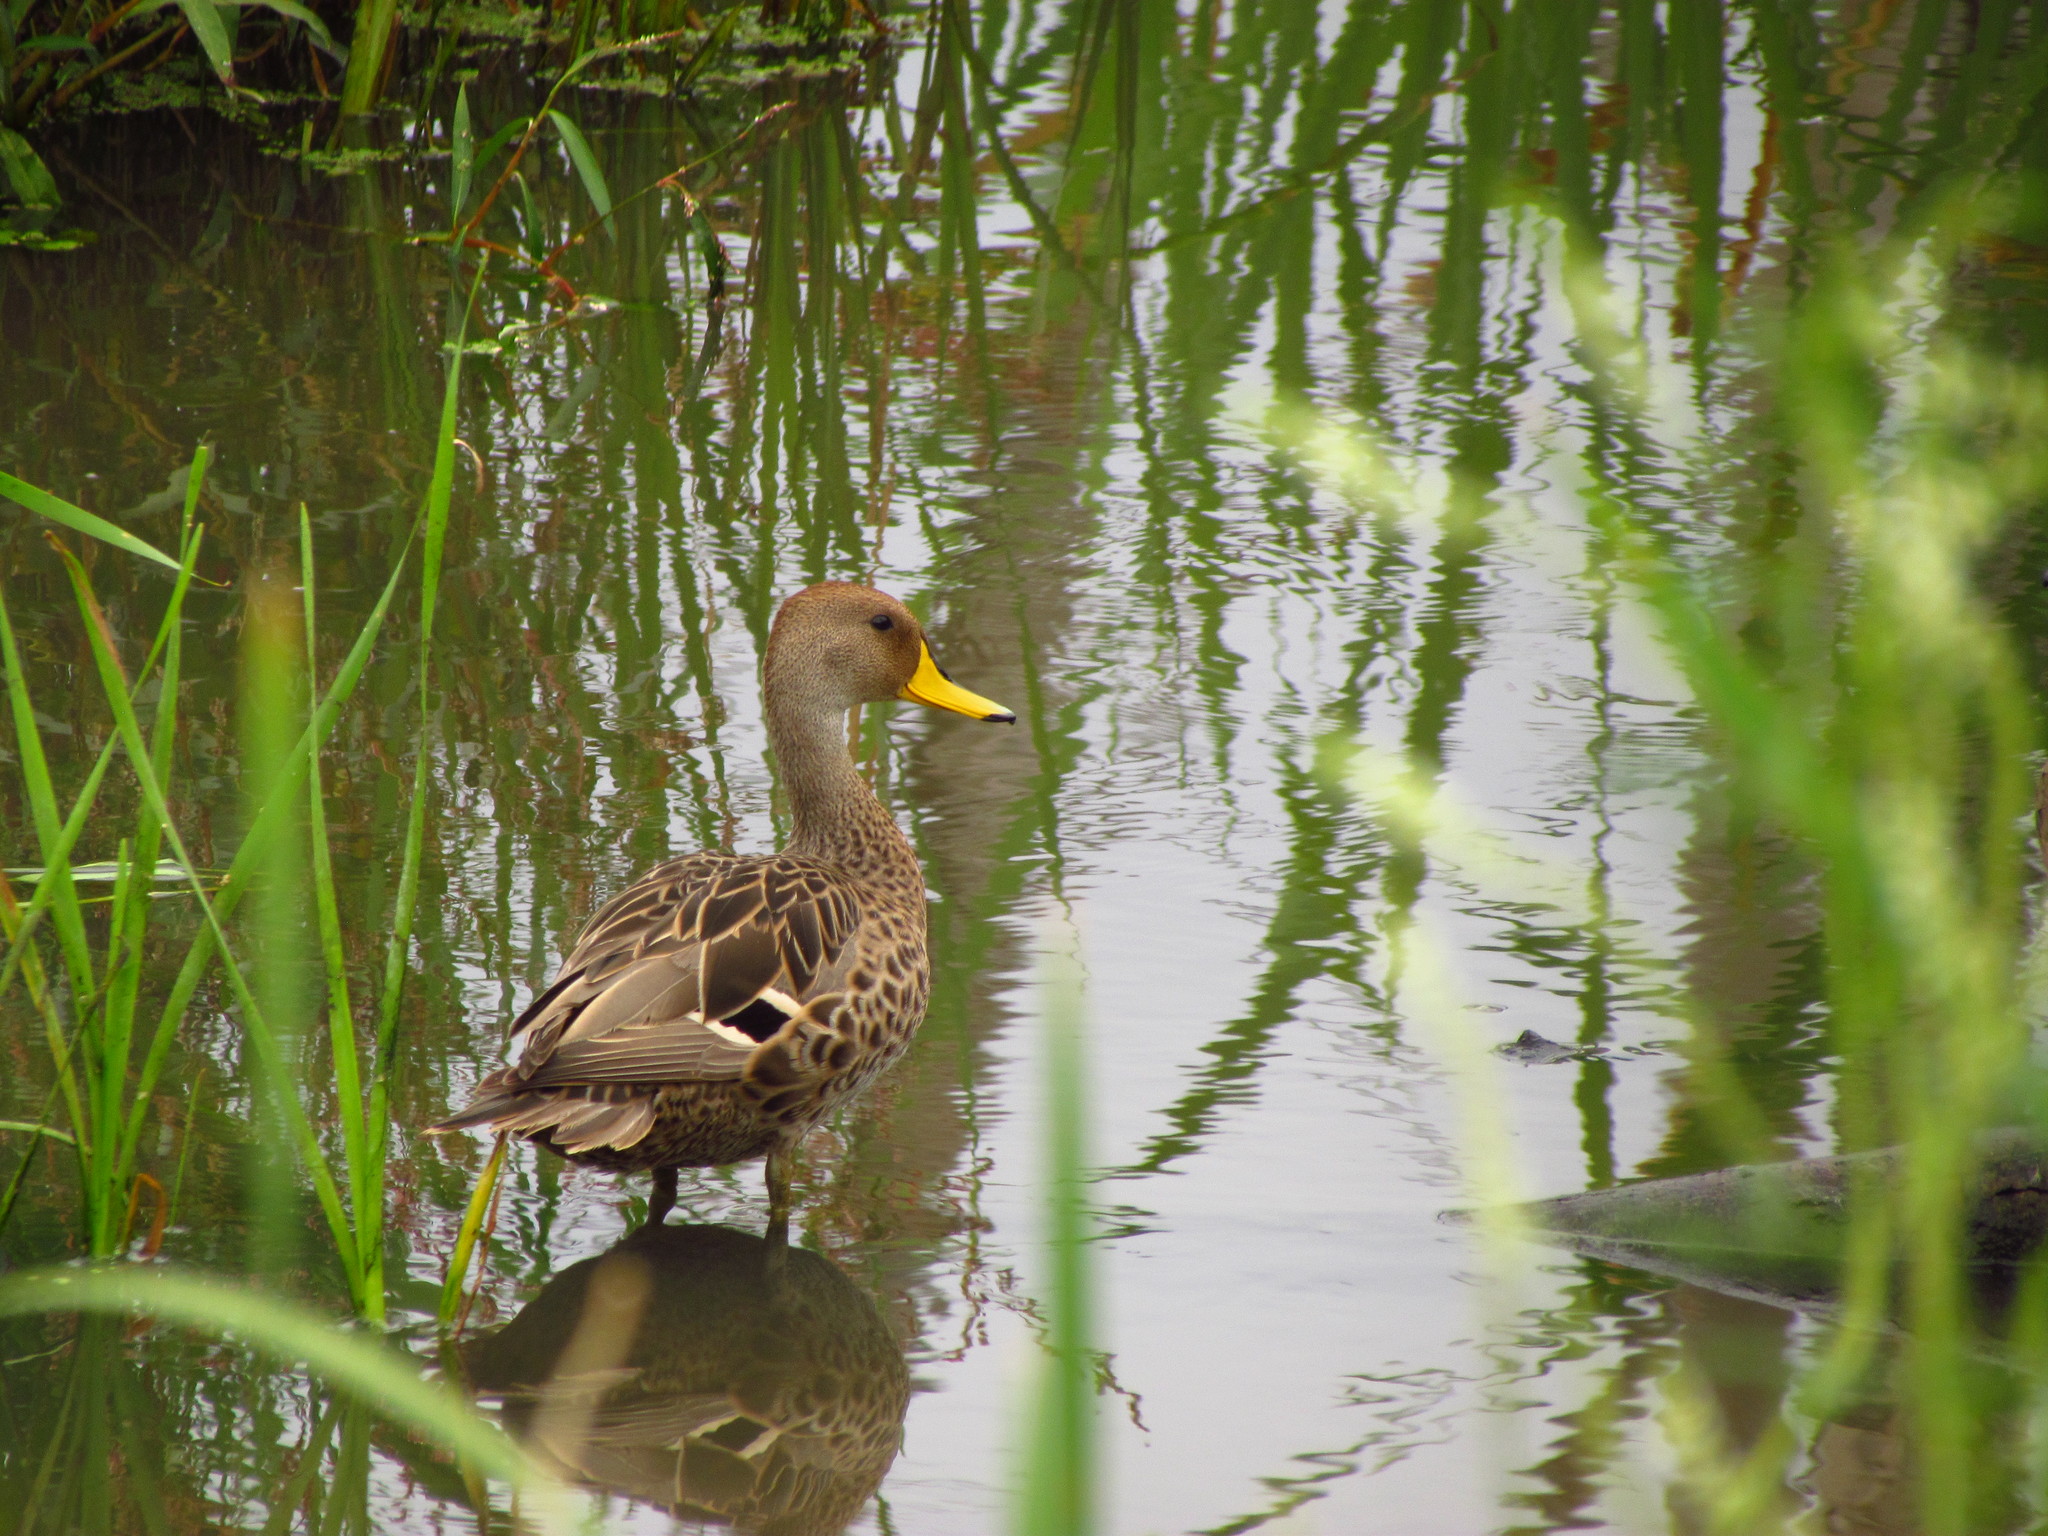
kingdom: Animalia
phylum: Chordata
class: Aves
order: Anseriformes
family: Anatidae
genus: Anas
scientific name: Anas georgica
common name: Yellow-billed pintail
